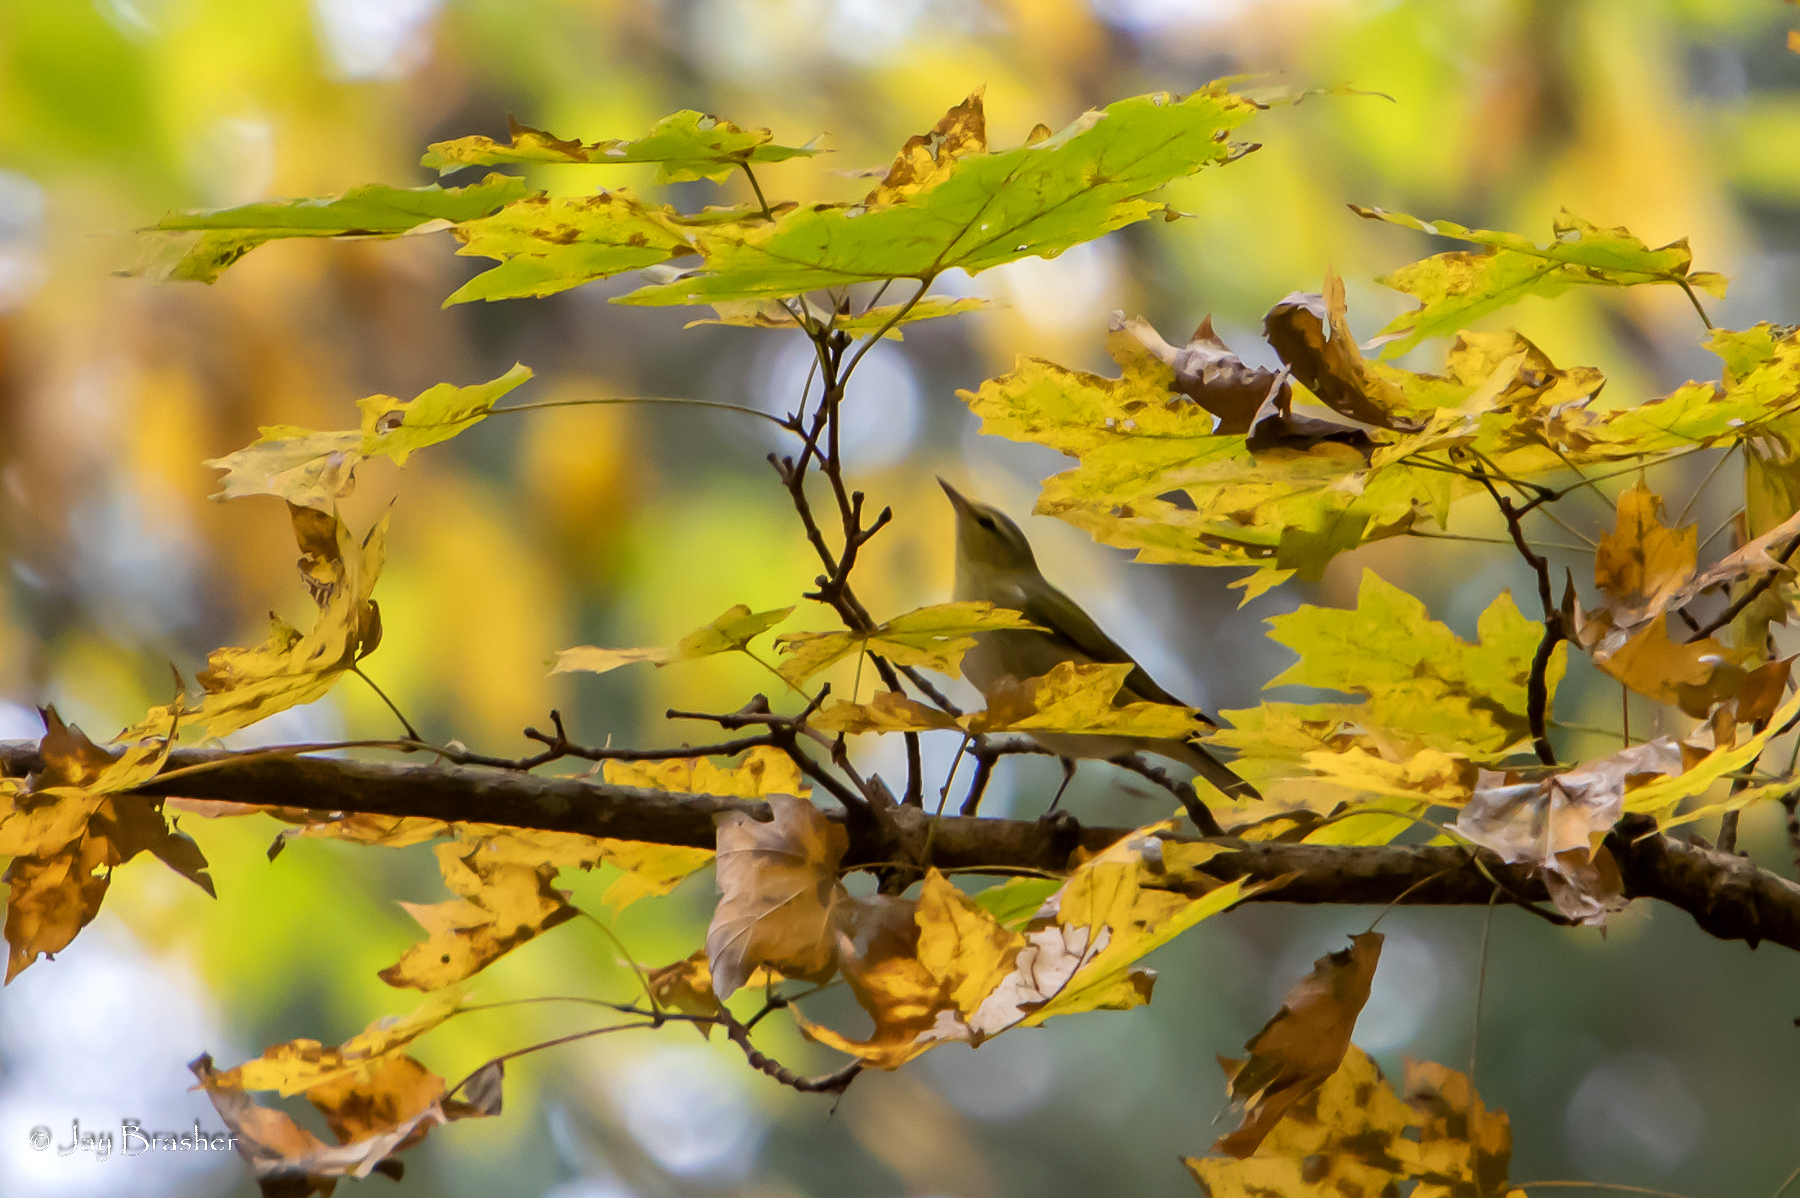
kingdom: Animalia
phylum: Chordata
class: Aves
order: Passeriformes
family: Parulidae
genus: Leiothlypis
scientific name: Leiothlypis peregrina
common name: Tennessee warbler
